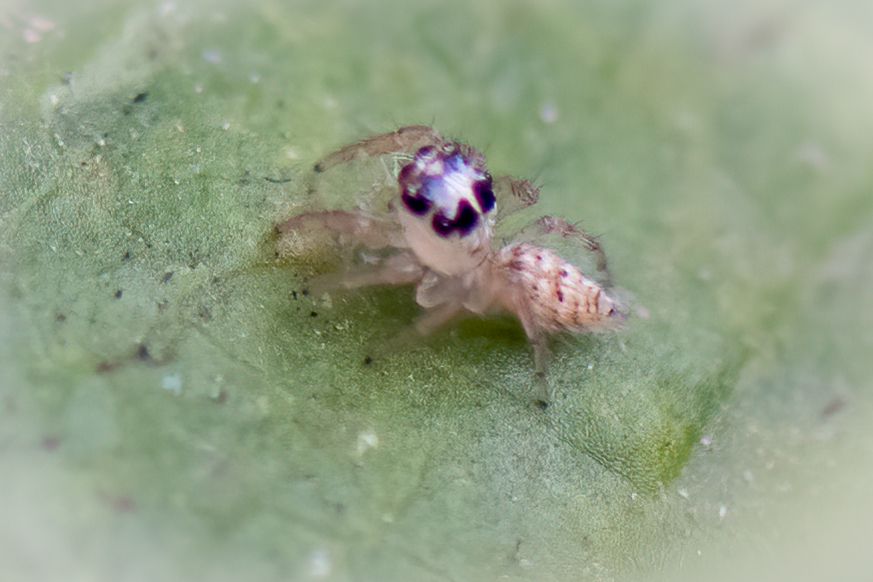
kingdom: Animalia
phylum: Arthropoda
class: Arachnida
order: Araneae
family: Salticidae
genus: Colonus
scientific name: Colonus hesperus
